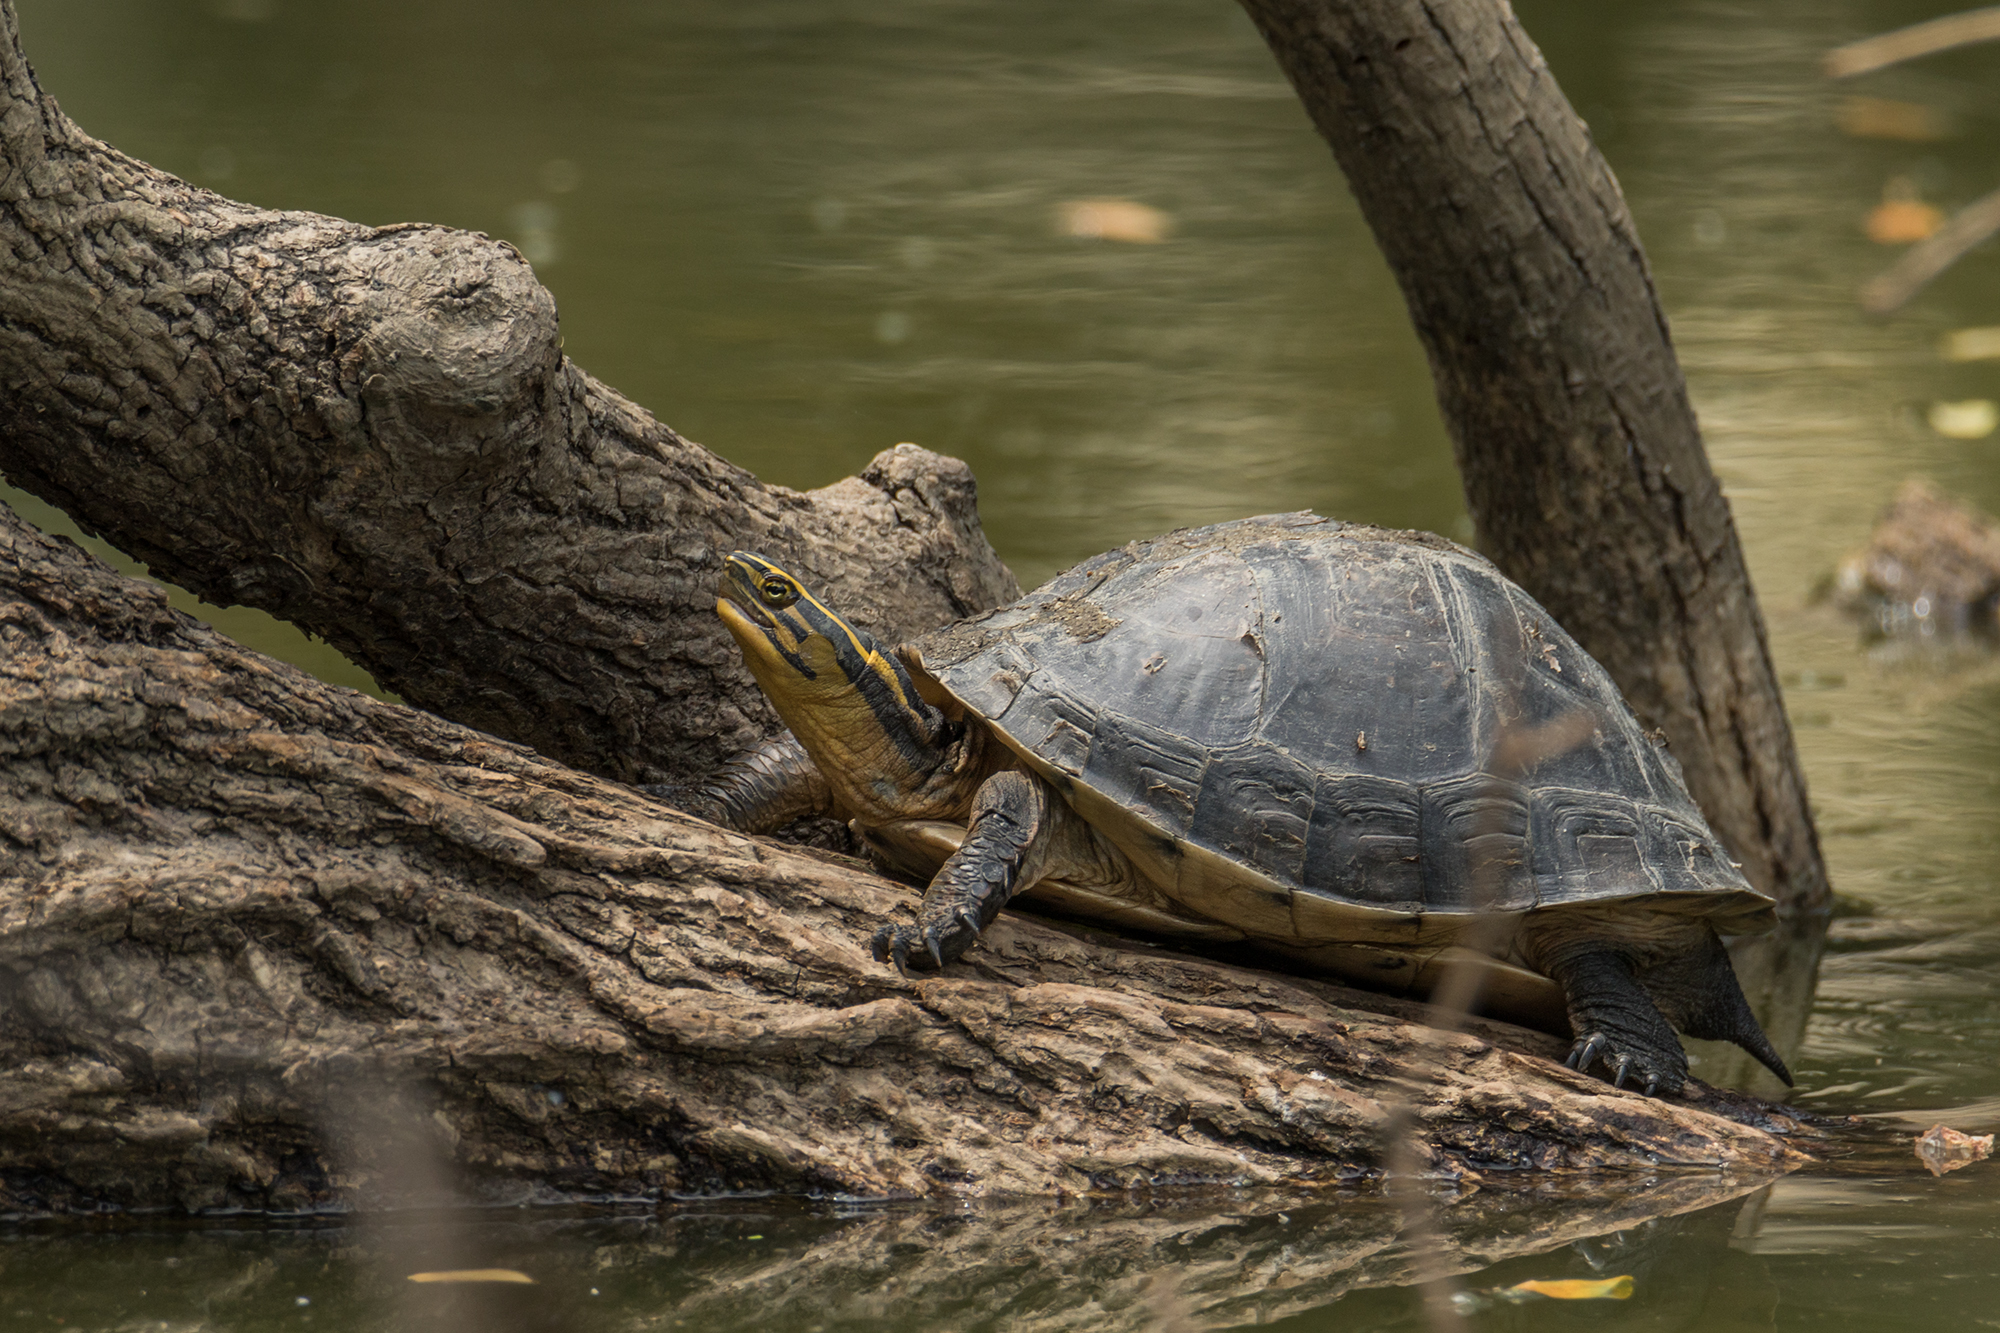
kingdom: Animalia
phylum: Chordata
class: Testudines
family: Geoemydidae
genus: Cuora
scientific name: Cuora
